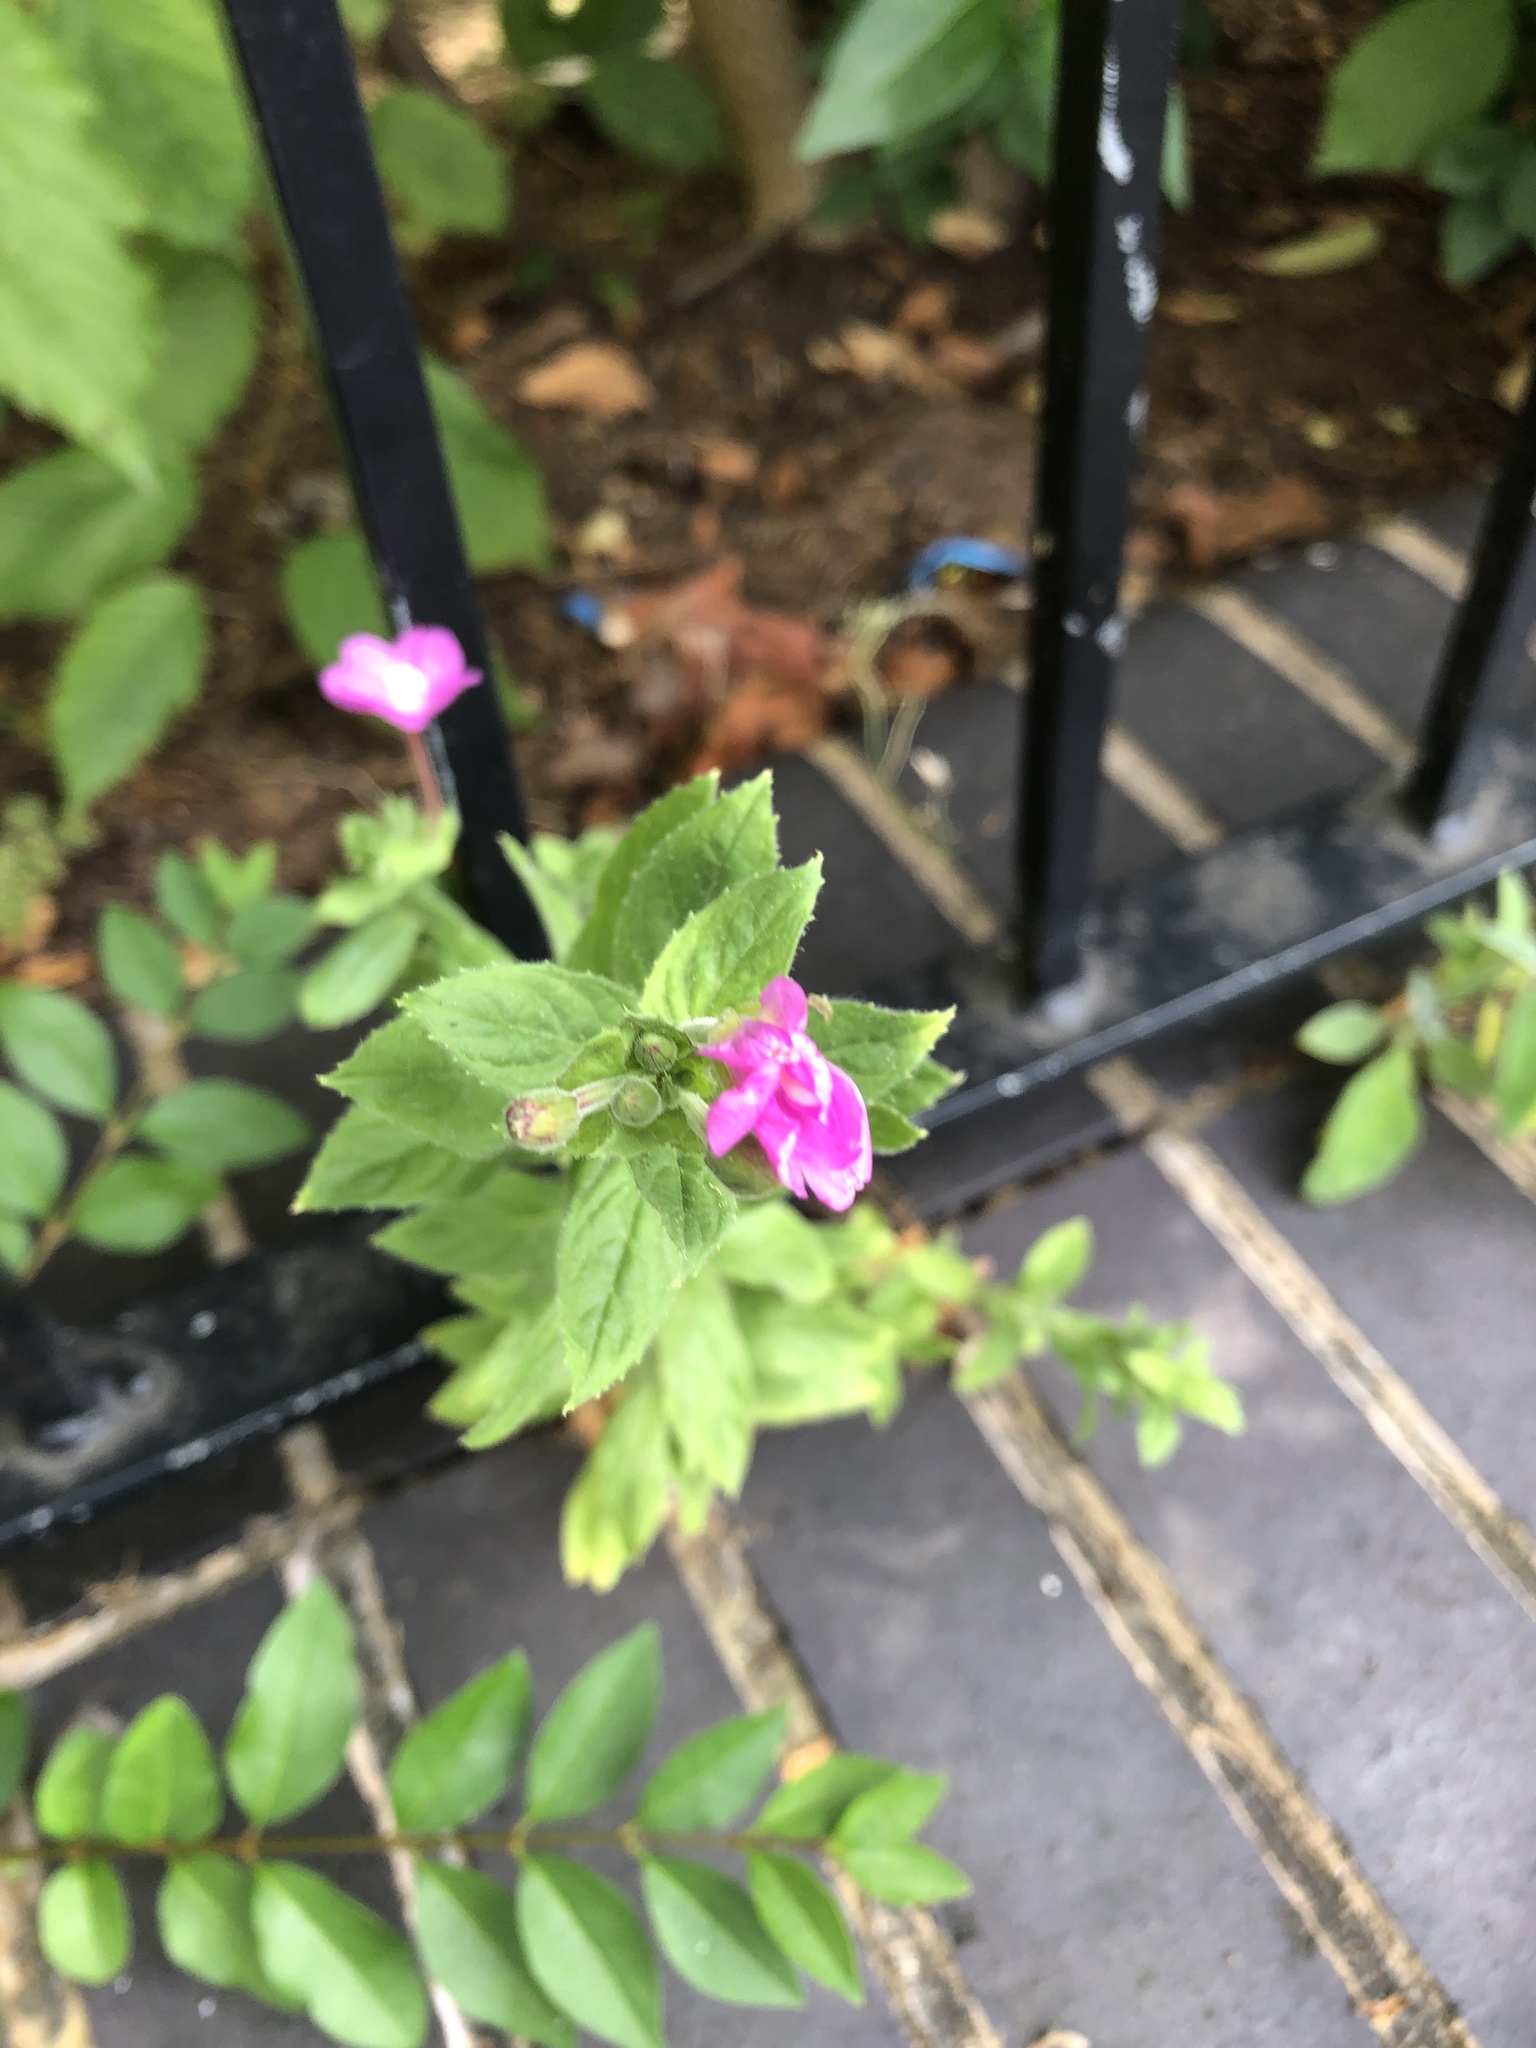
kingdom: Plantae
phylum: Tracheophyta
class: Magnoliopsida
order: Myrtales
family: Onagraceae
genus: Epilobium
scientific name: Epilobium hirsutum
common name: Great willowherb
